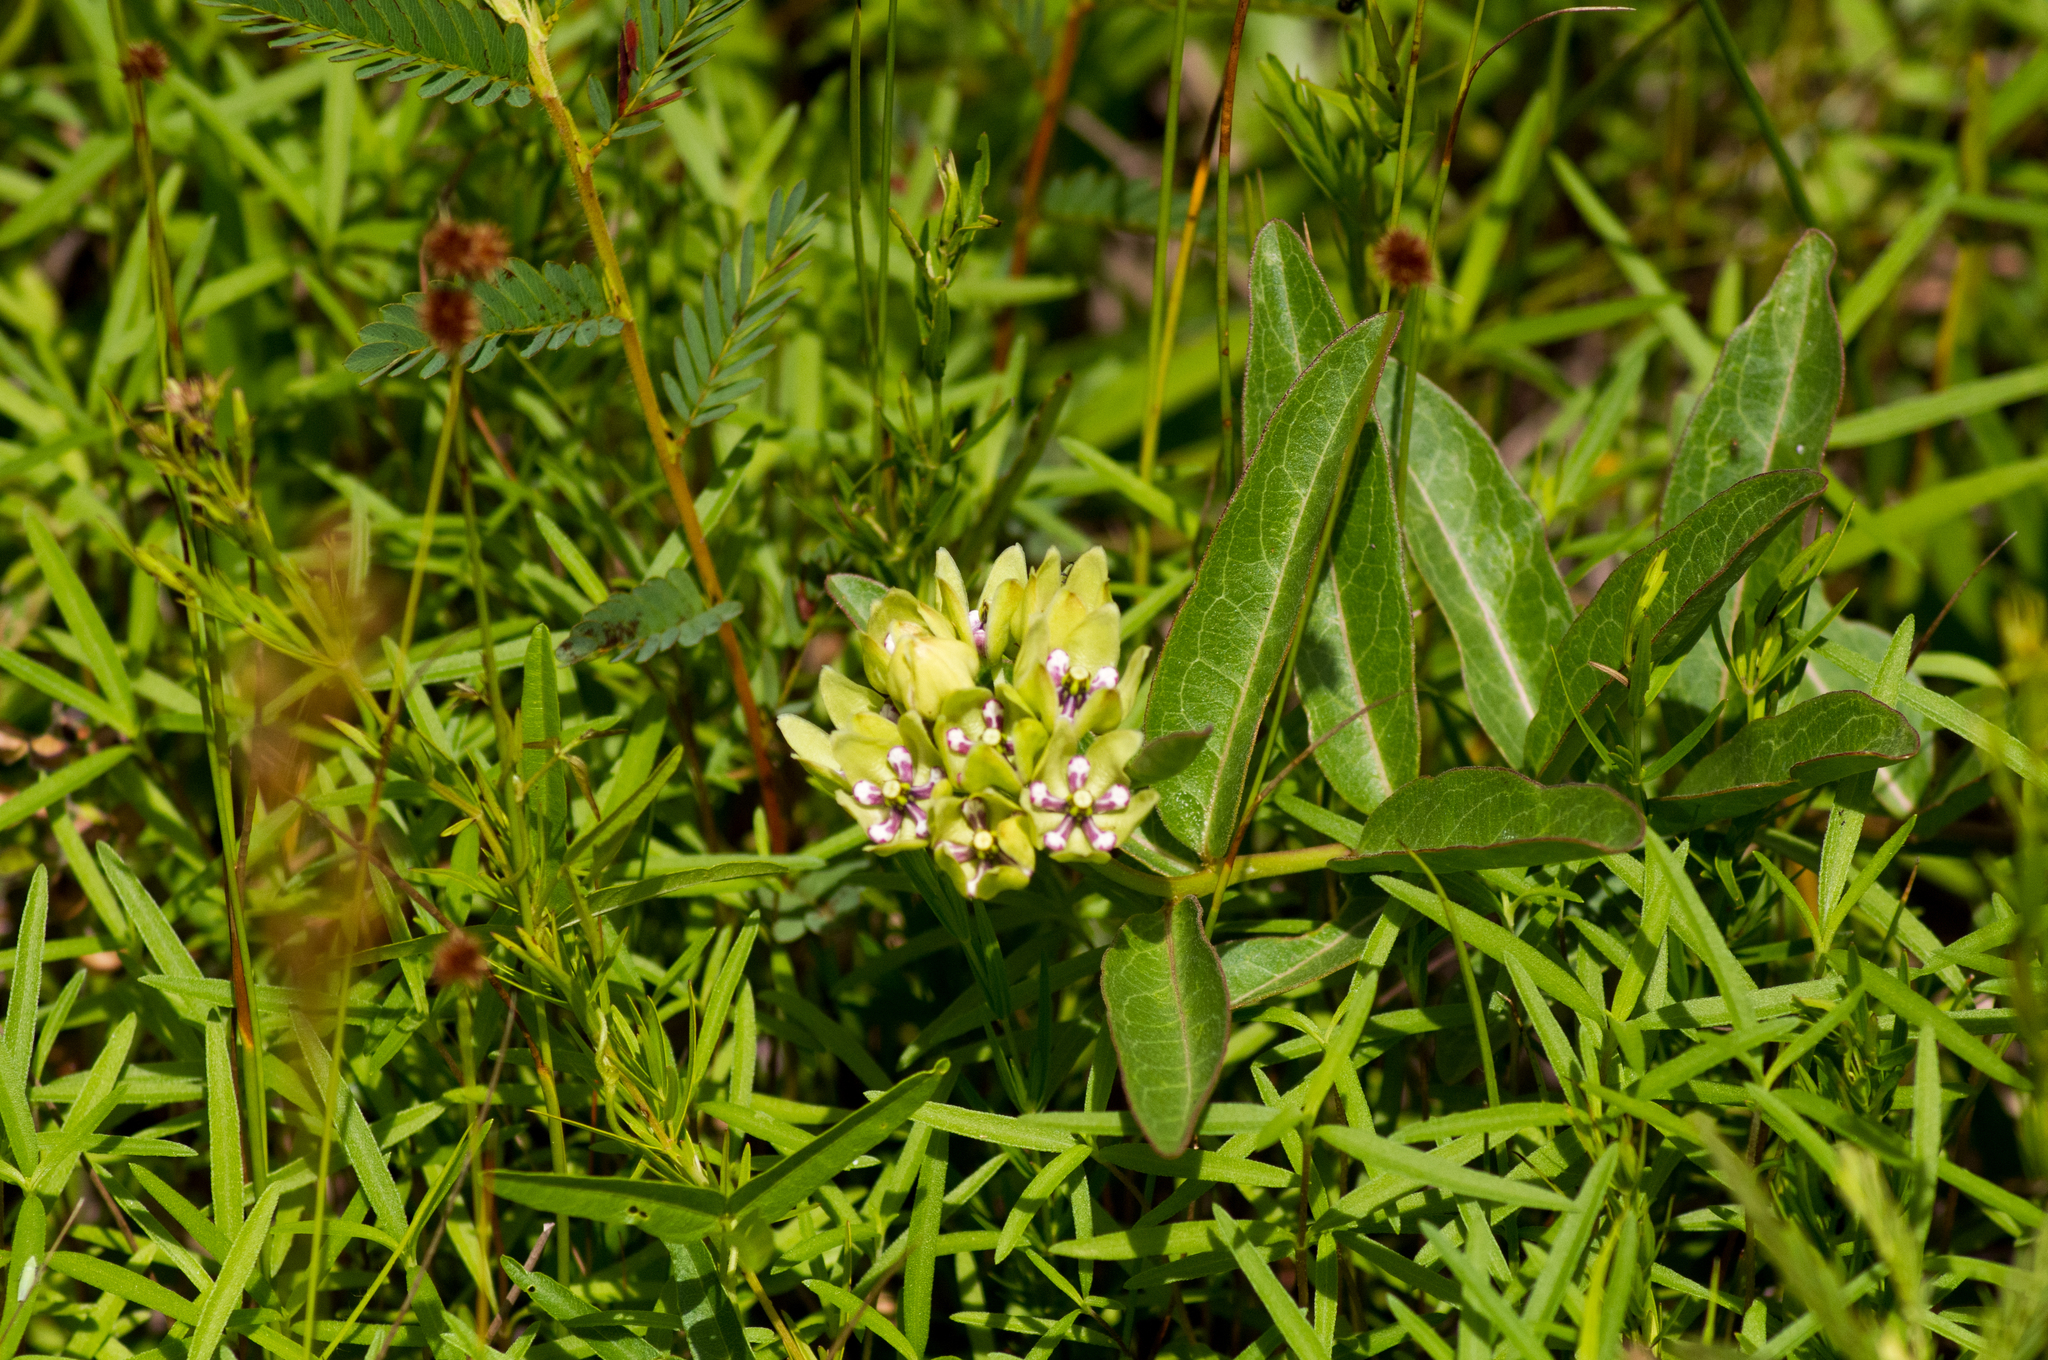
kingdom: Plantae
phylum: Tracheophyta
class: Magnoliopsida
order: Gentianales
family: Apocynaceae
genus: Asclepias
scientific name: Asclepias viridis
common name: Antelope-horns
